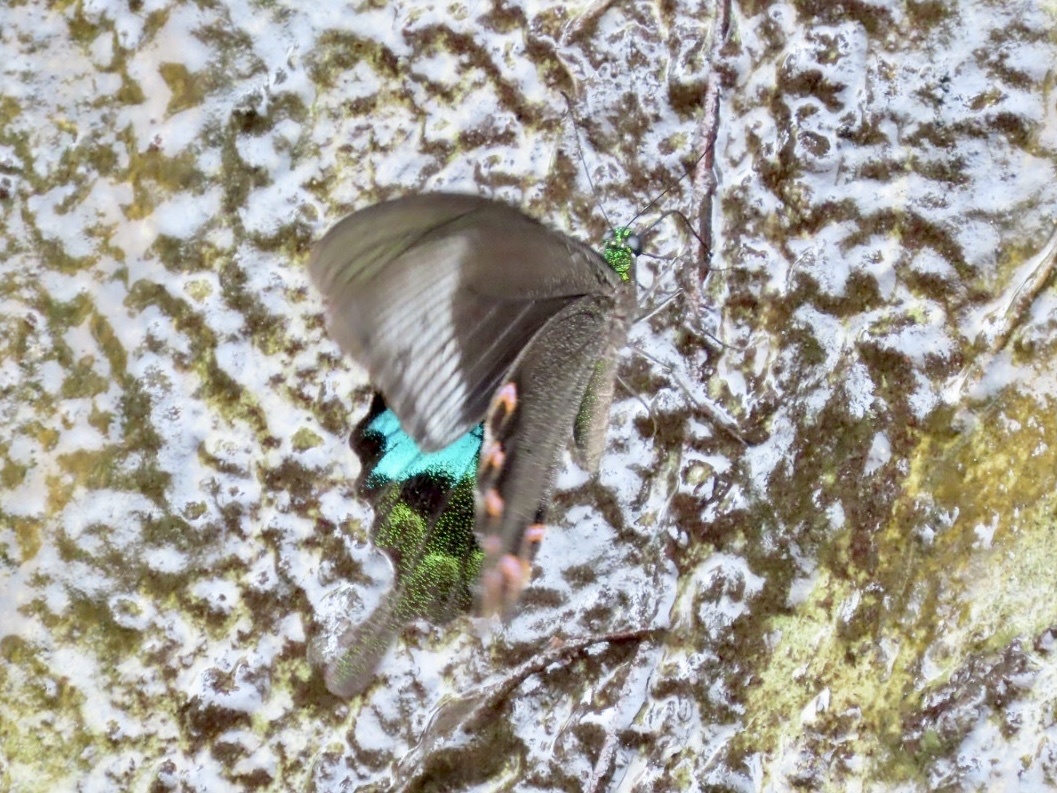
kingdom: Animalia
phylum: Arthropoda
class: Insecta
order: Lepidoptera
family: Papilionidae
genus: Papilio
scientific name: Papilio paris
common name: Paris peacock
